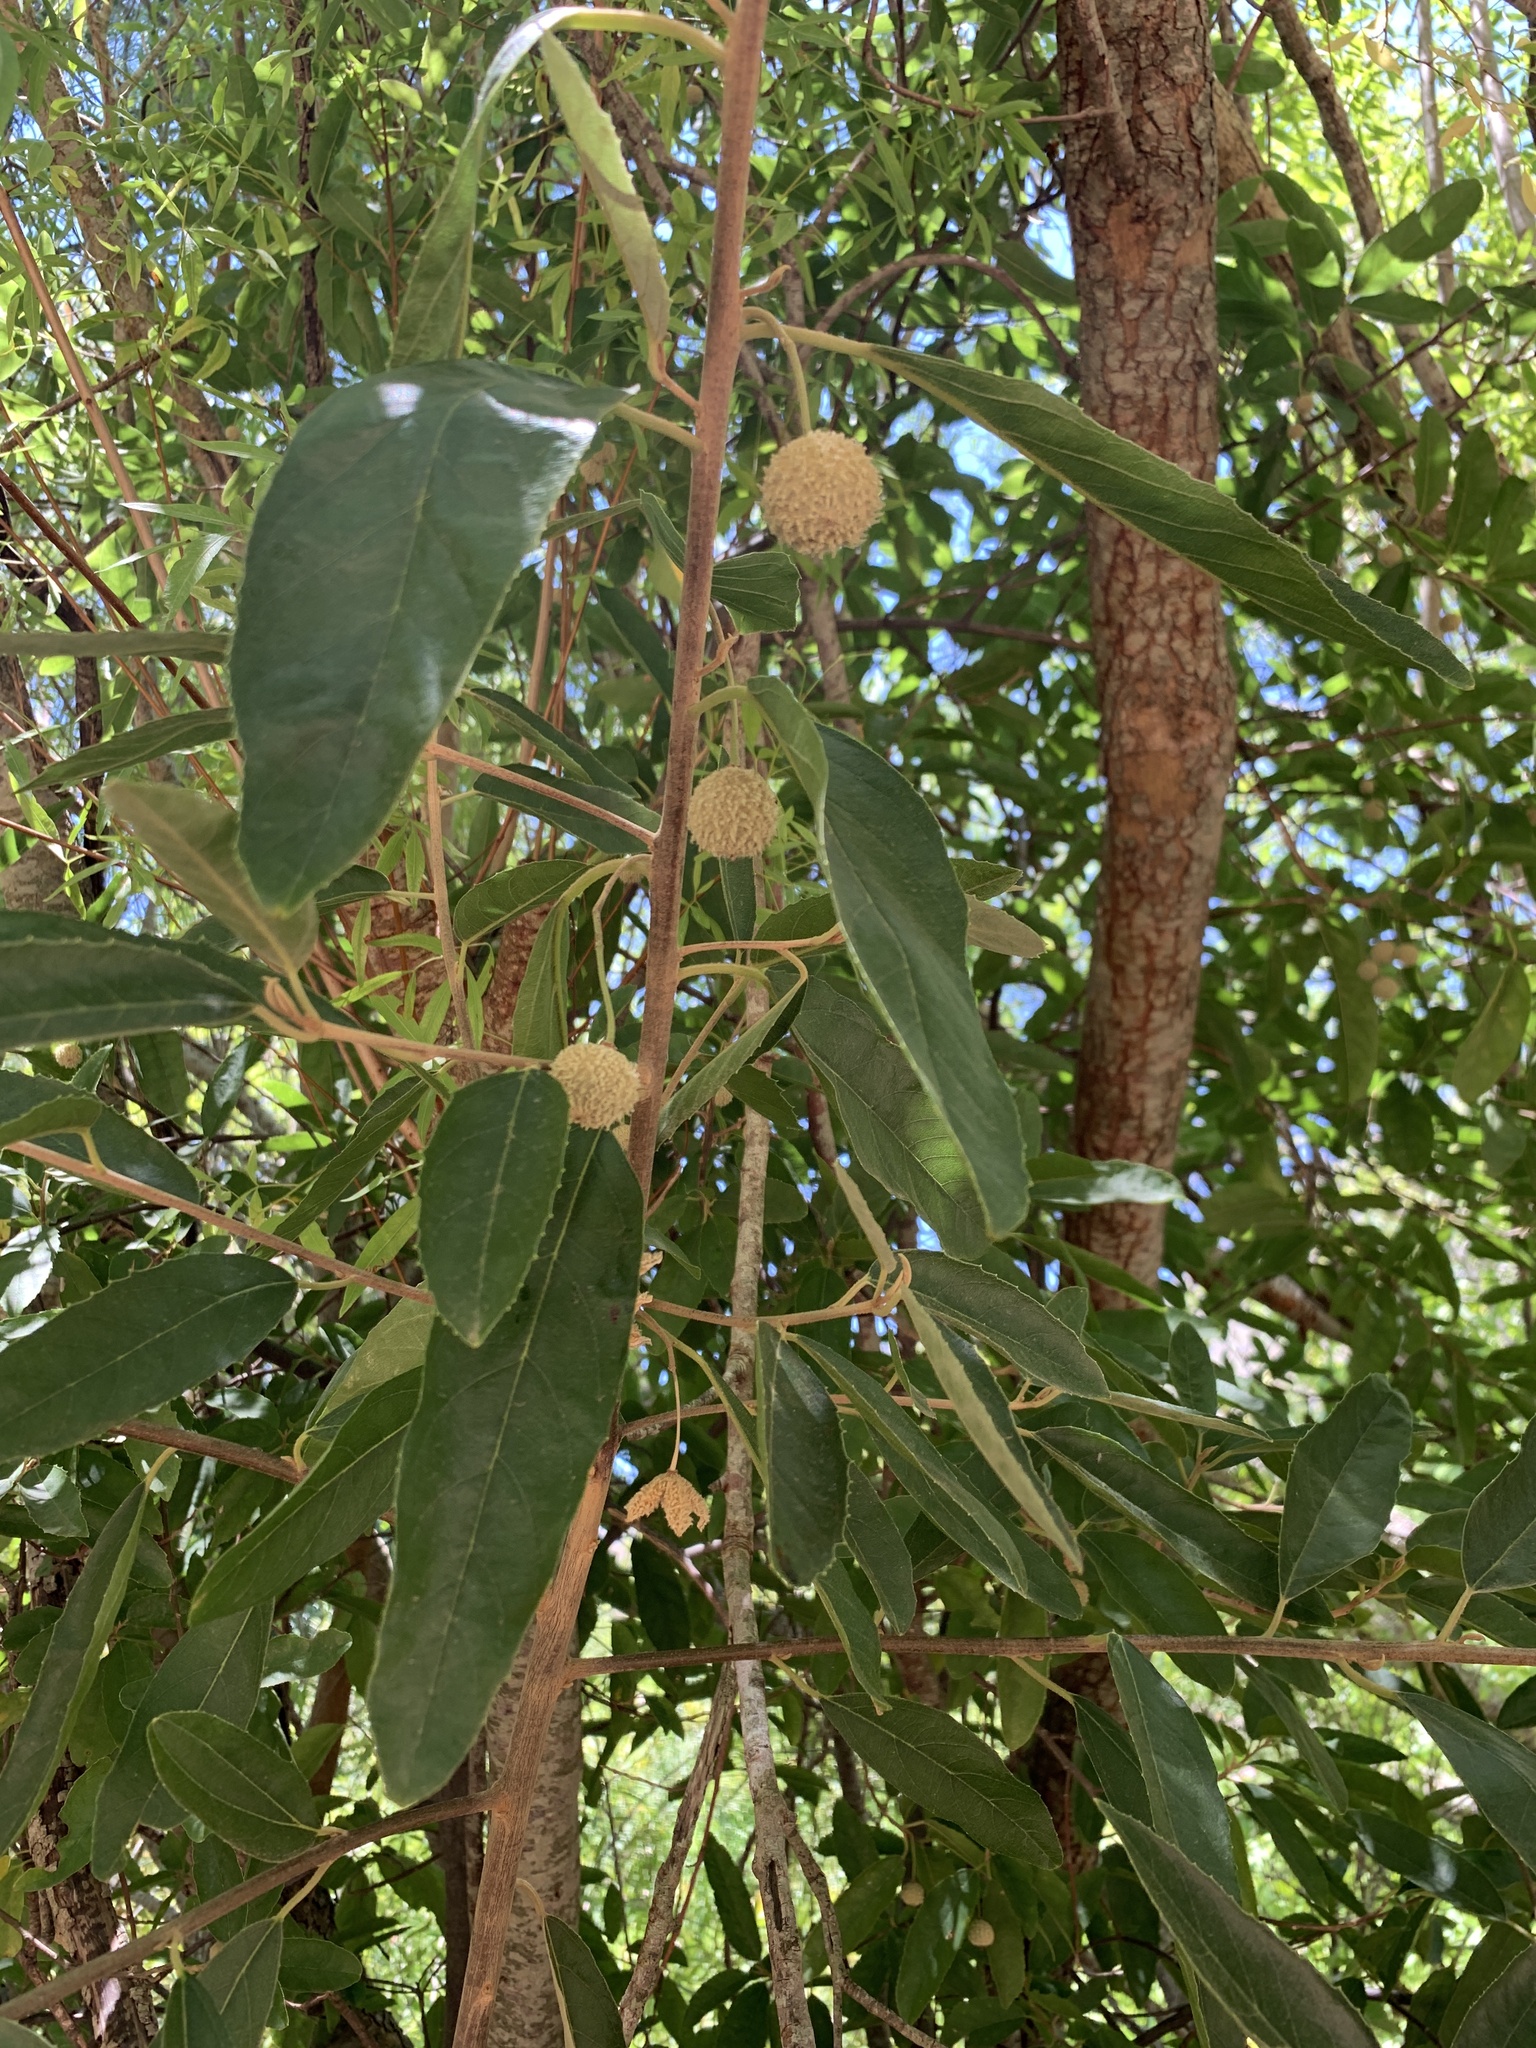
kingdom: Plantae
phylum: Tracheophyta
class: Magnoliopsida
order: Malpighiales
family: Achariaceae
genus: Kiggelaria
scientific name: Kiggelaria africana
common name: Wild peach
